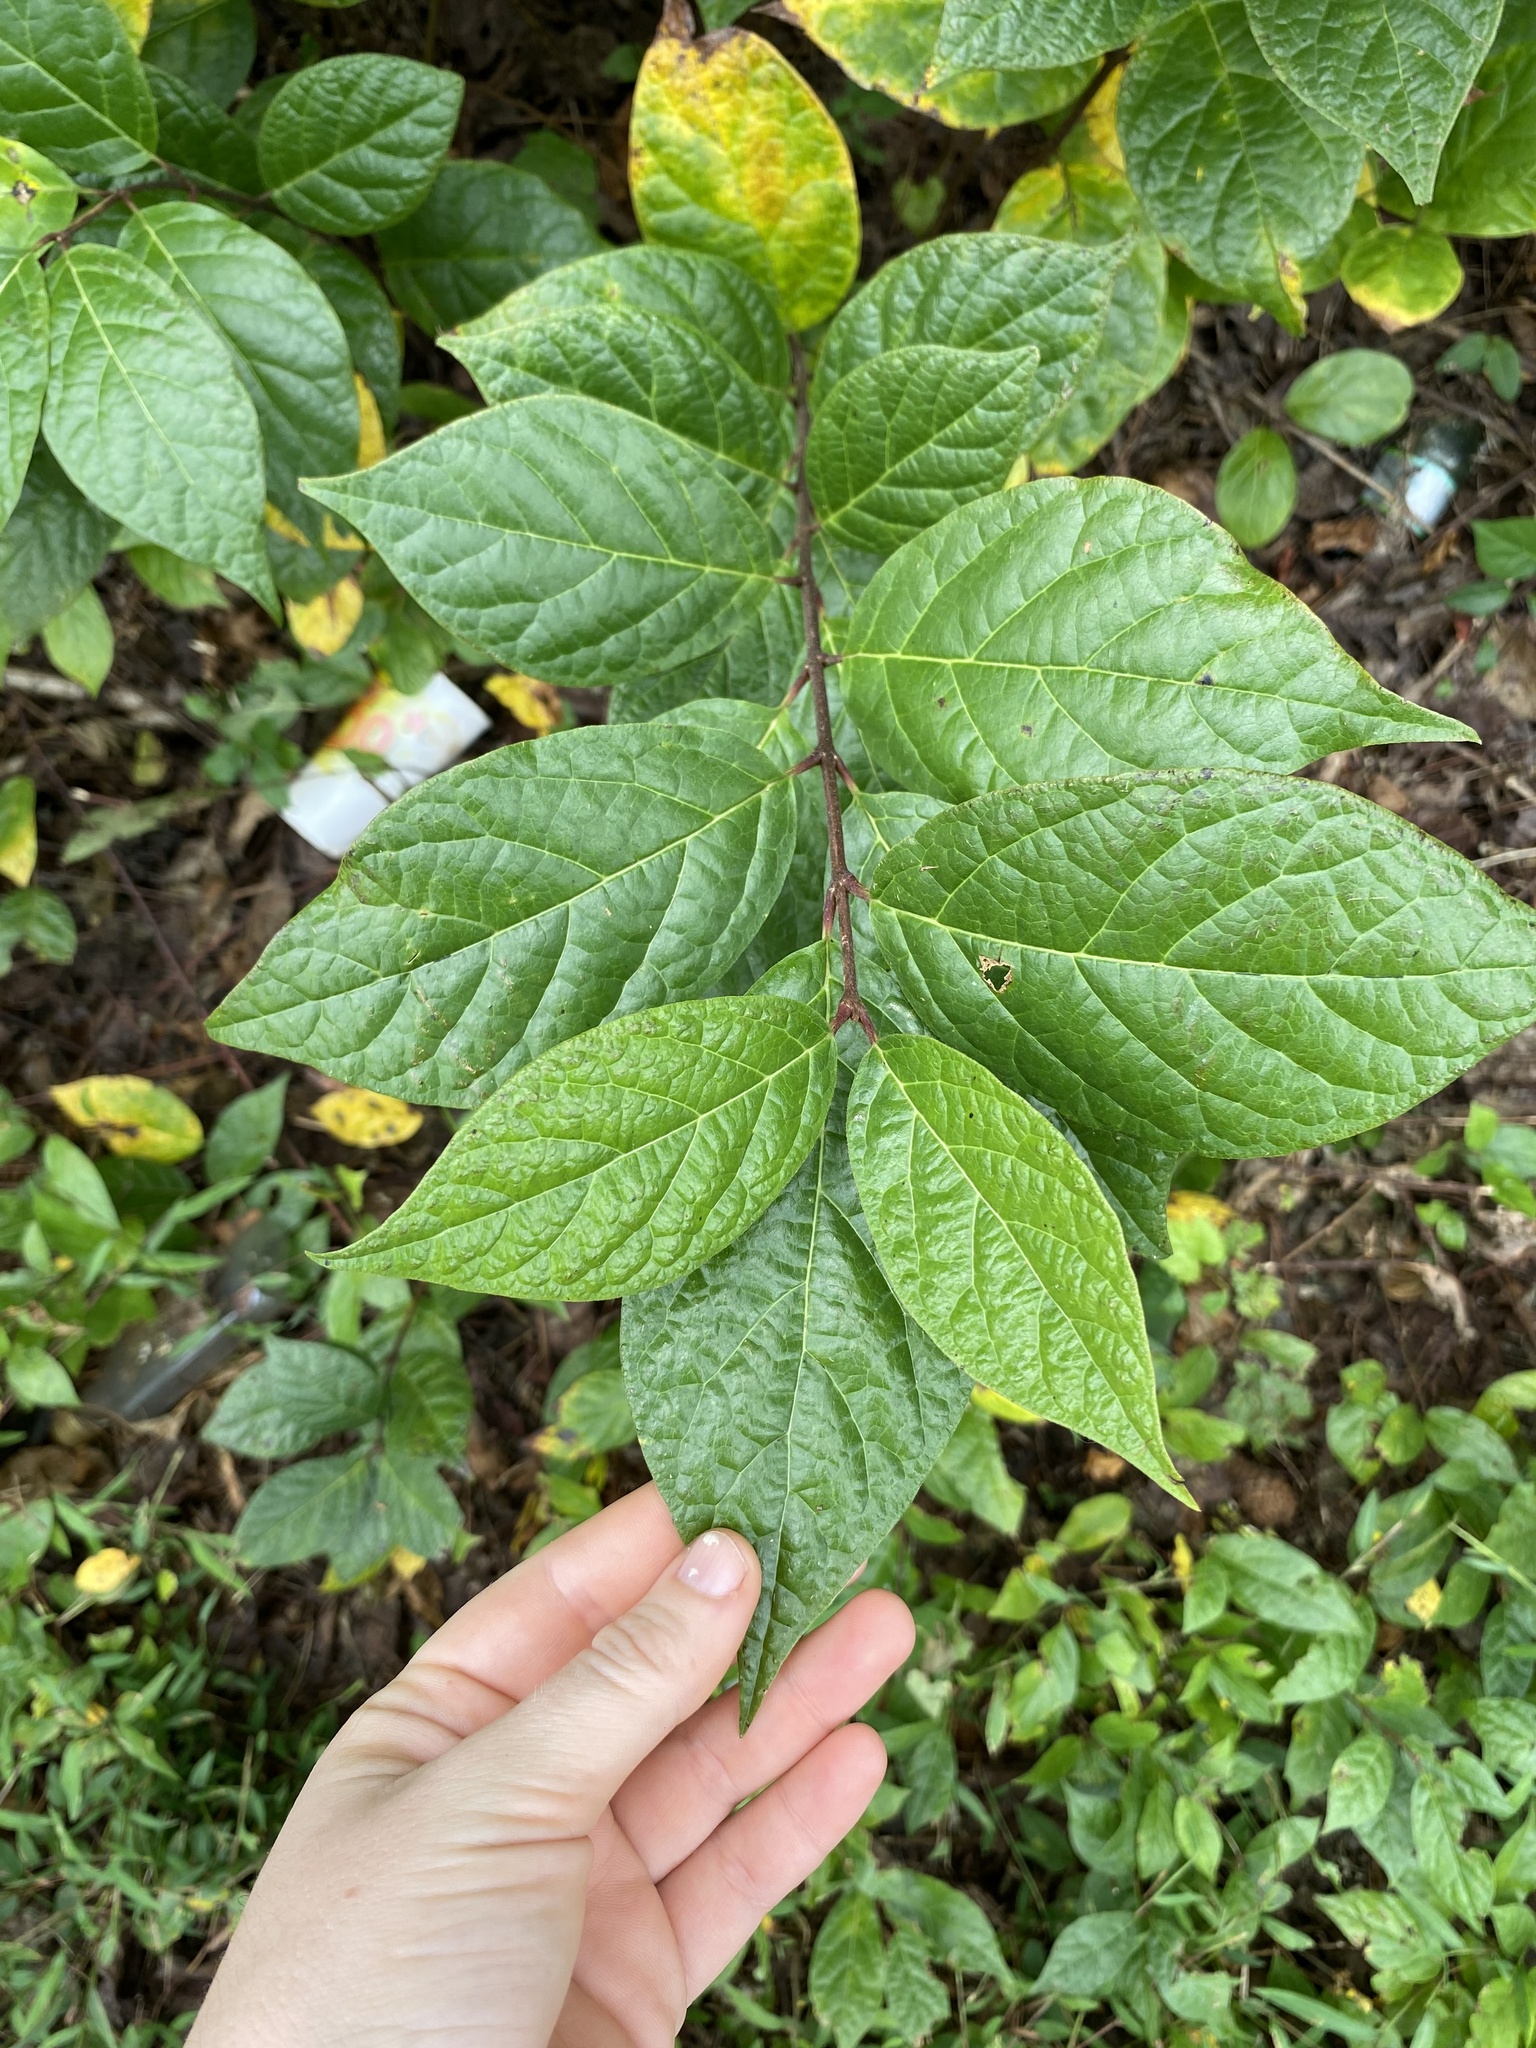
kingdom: Plantae
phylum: Tracheophyta
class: Magnoliopsida
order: Laurales
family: Calycanthaceae
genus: Calycanthus
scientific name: Calycanthus floridus
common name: Carolina-allspice
